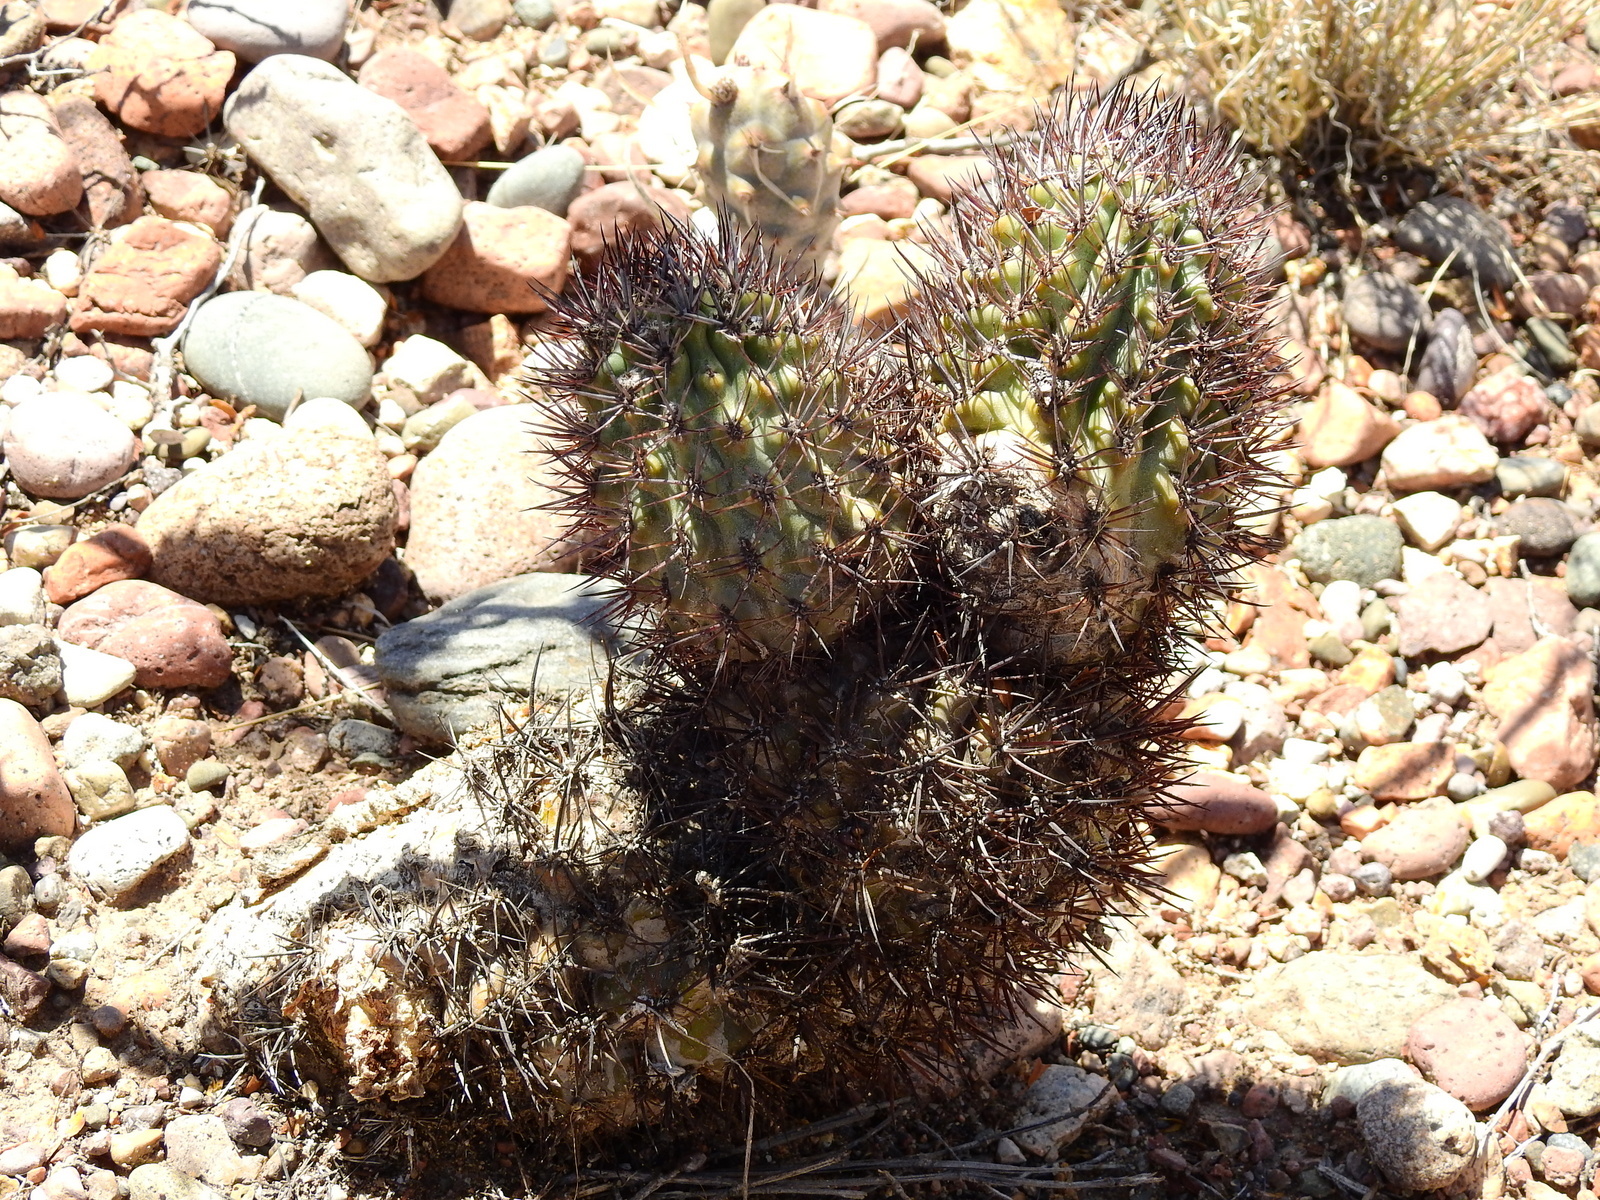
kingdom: Plantae
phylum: Tracheophyta
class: Magnoliopsida
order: Caryophyllales
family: Cactaceae
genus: Eriosyce
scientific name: Eriosyce strausiana
